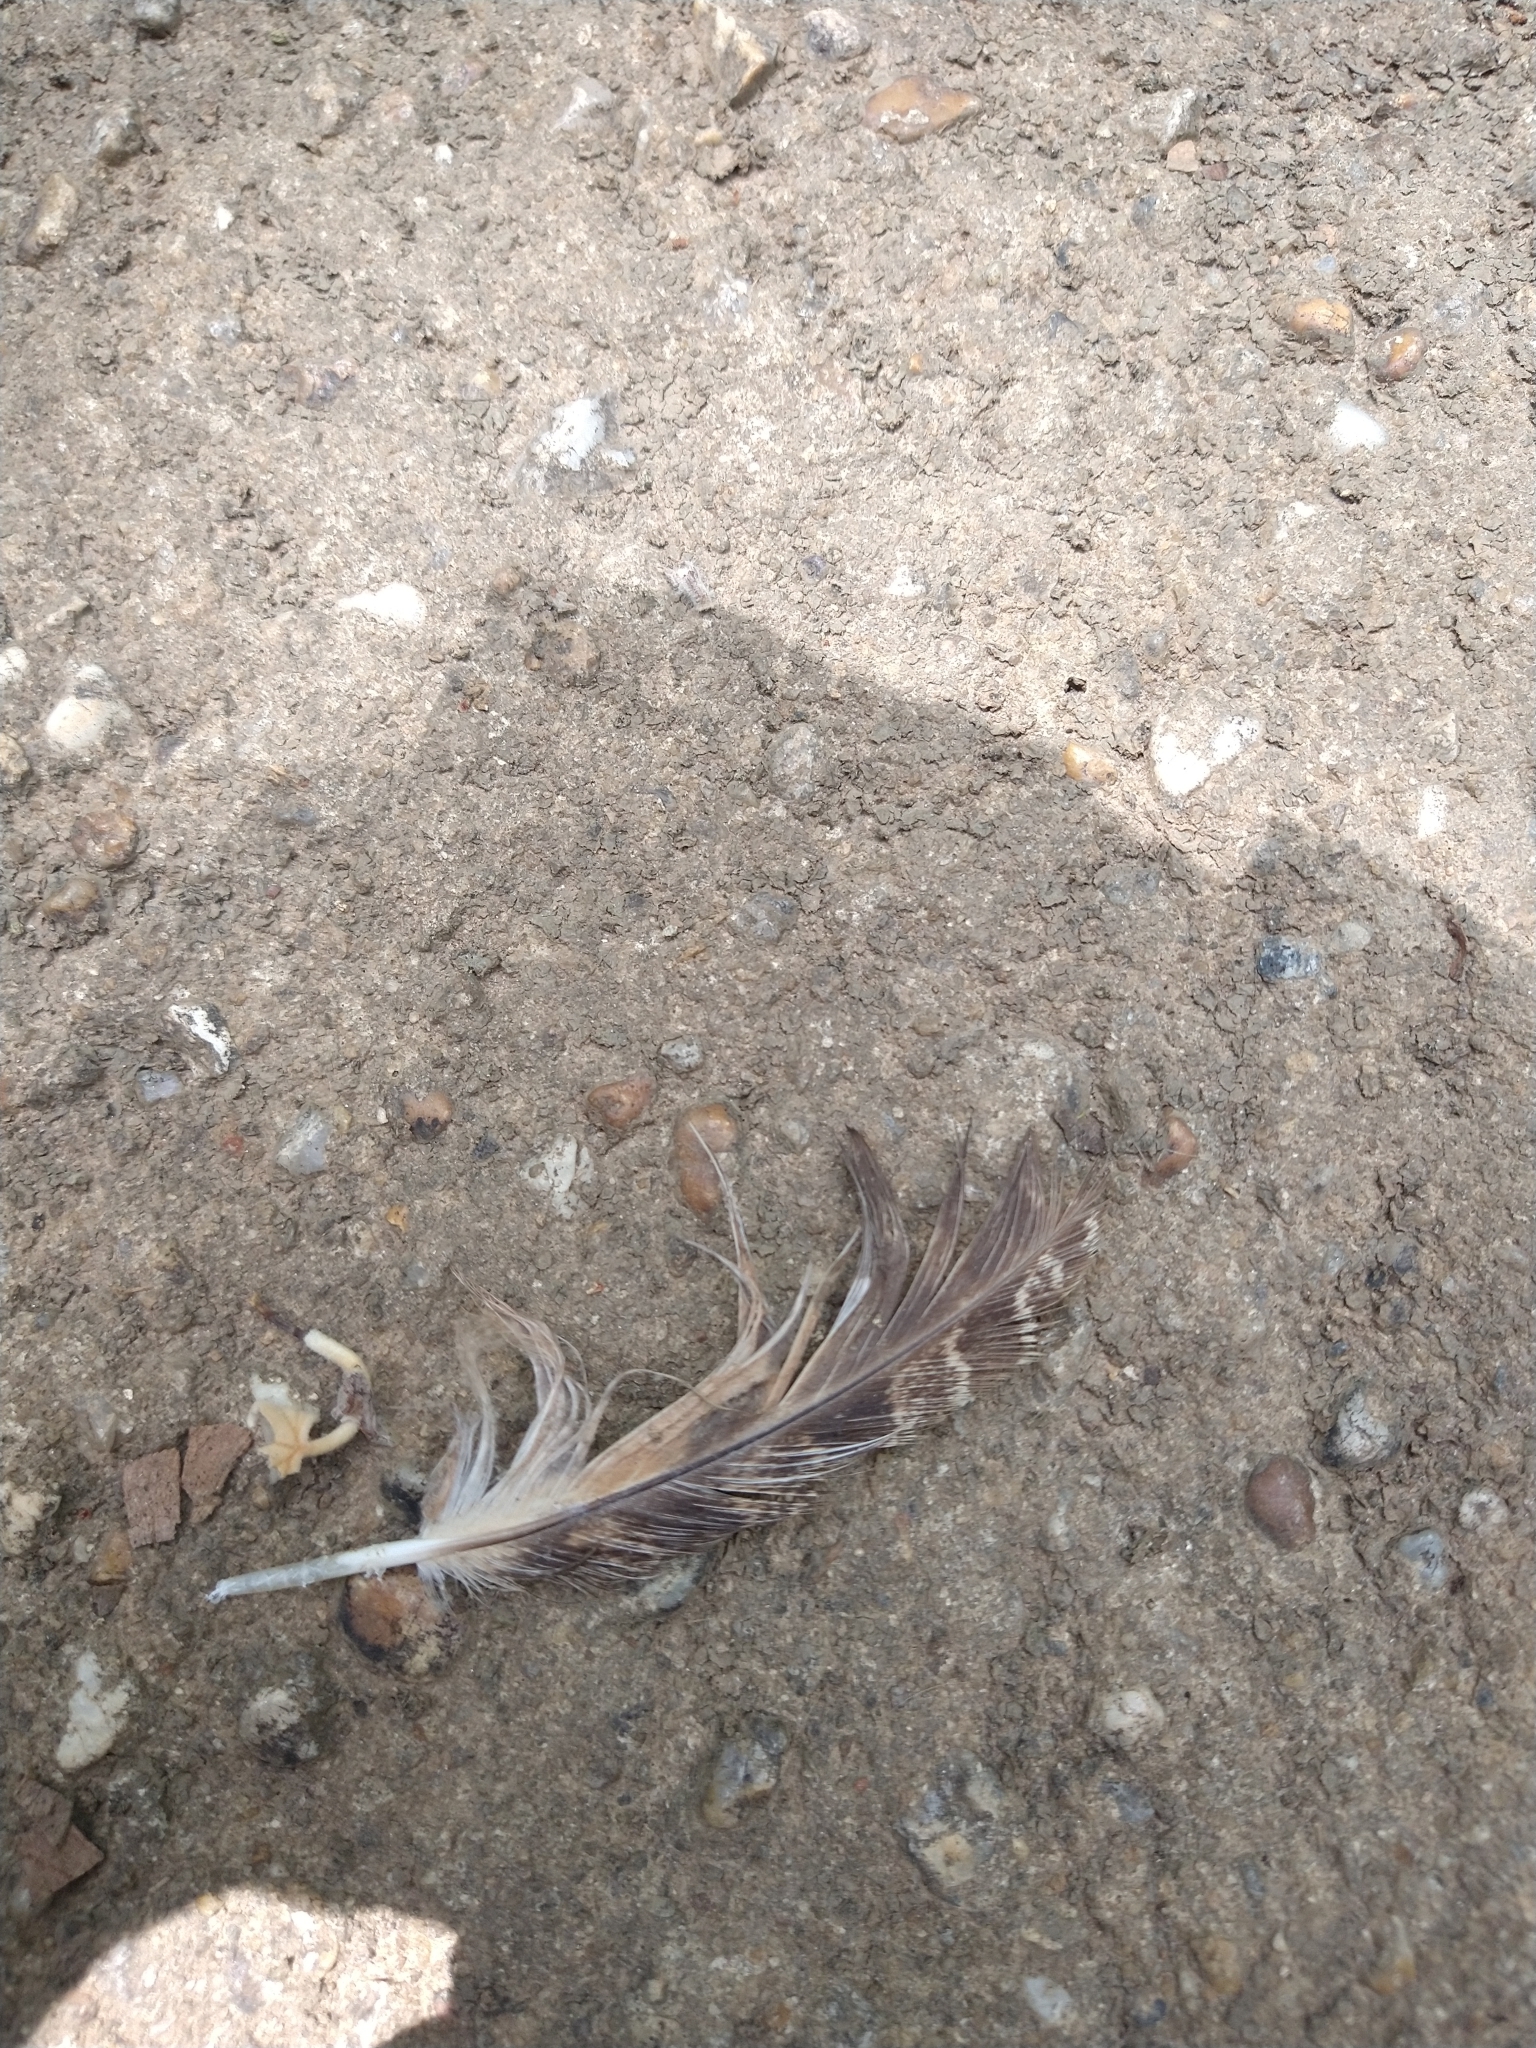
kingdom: Animalia
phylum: Chordata
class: Aves
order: Strigiformes
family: Strigidae
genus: Bubo
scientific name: Bubo virginianus
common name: Great horned owl
